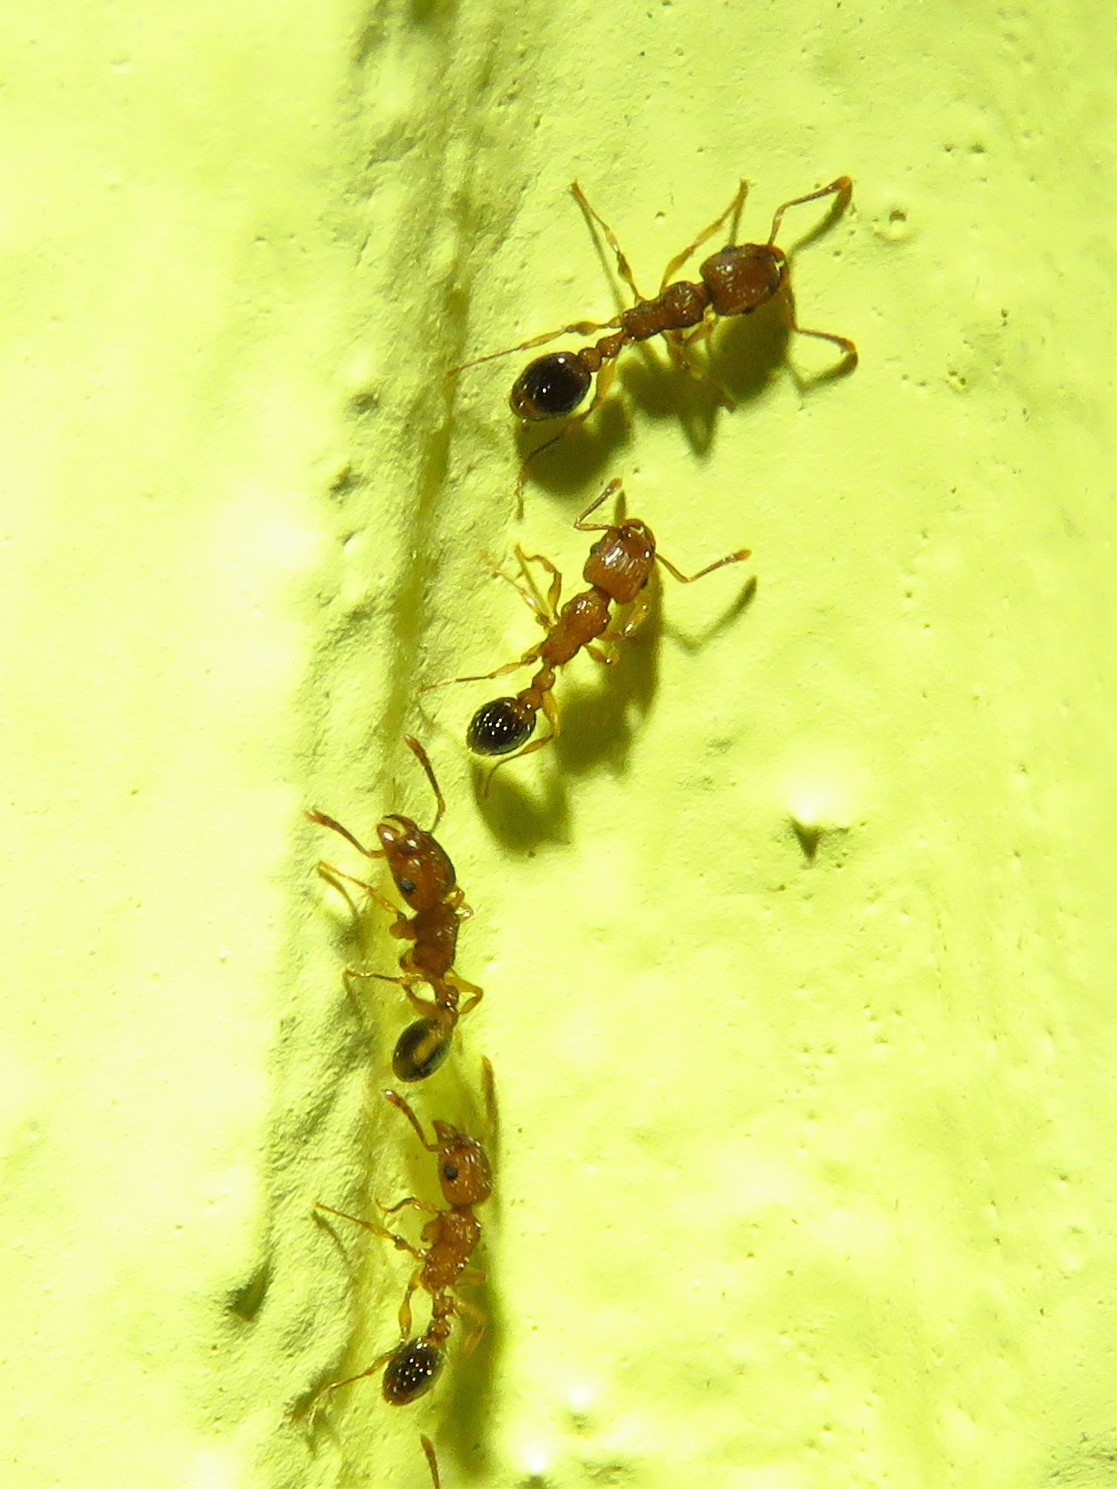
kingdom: Animalia
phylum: Arthropoda
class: Insecta
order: Hymenoptera
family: Formicidae
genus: Tetramorium
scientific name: Tetramorium bicarinatum
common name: Guinea ant
